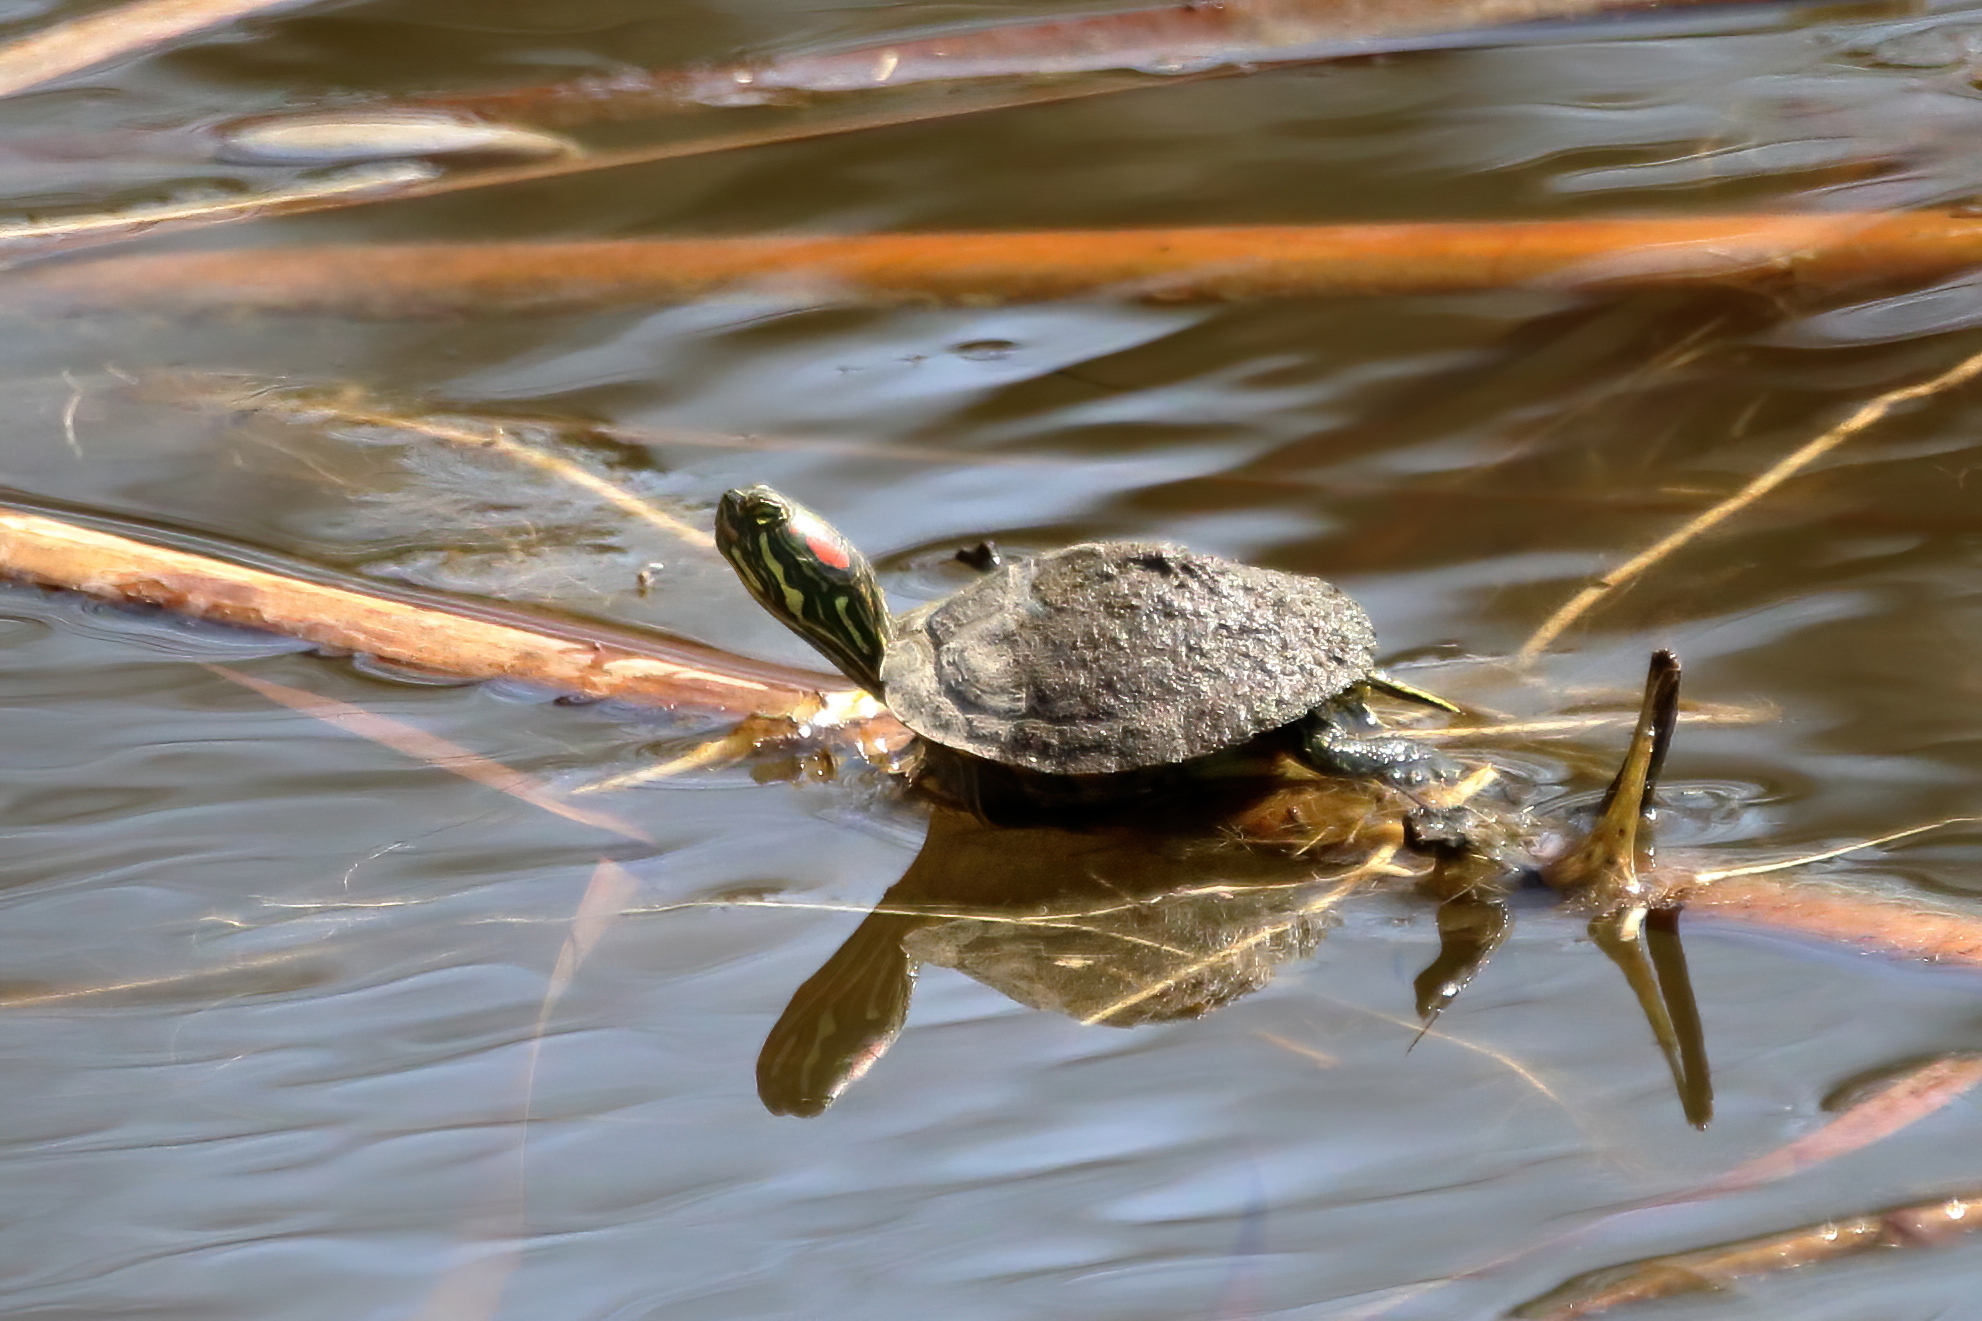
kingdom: Animalia
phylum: Chordata
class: Testudines
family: Emydidae
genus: Trachemys
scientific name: Trachemys scripta
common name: Slider
